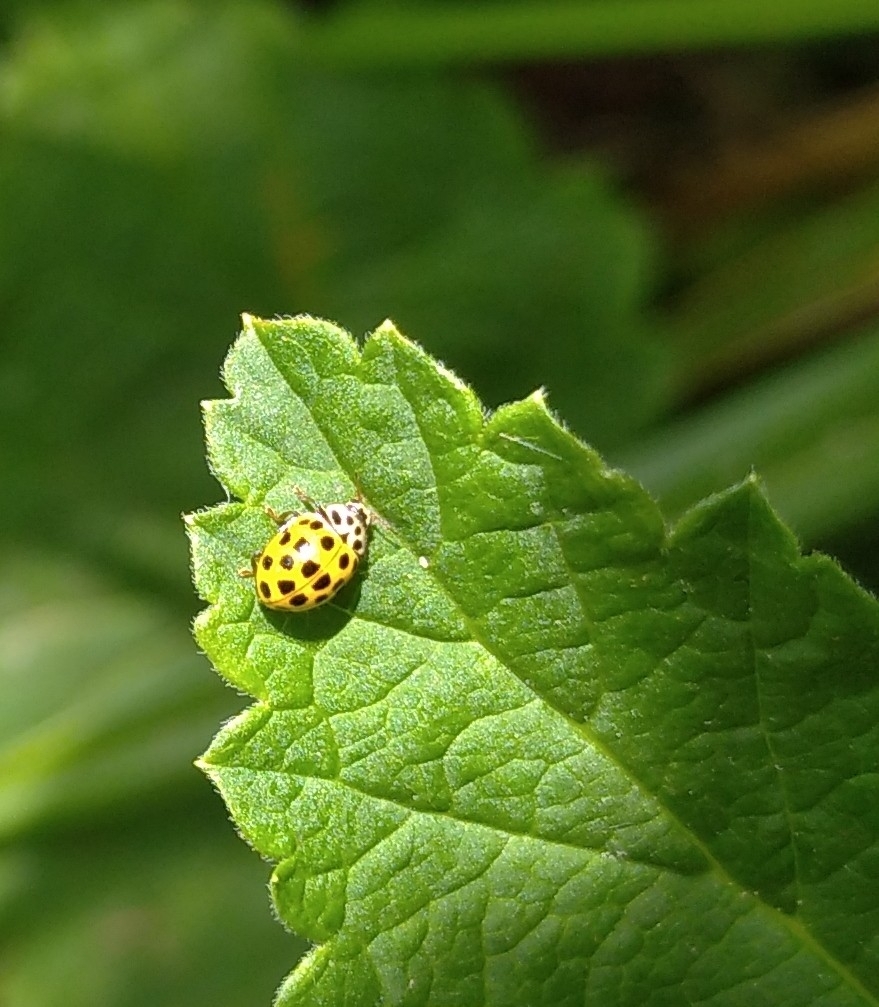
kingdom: Animalia
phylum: Arthropoda
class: Insecta
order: Coleoptera
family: Coccinellidae
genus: Psyllobora
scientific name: Psyllobora vigintiduopunctata
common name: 22-spot ladybird
